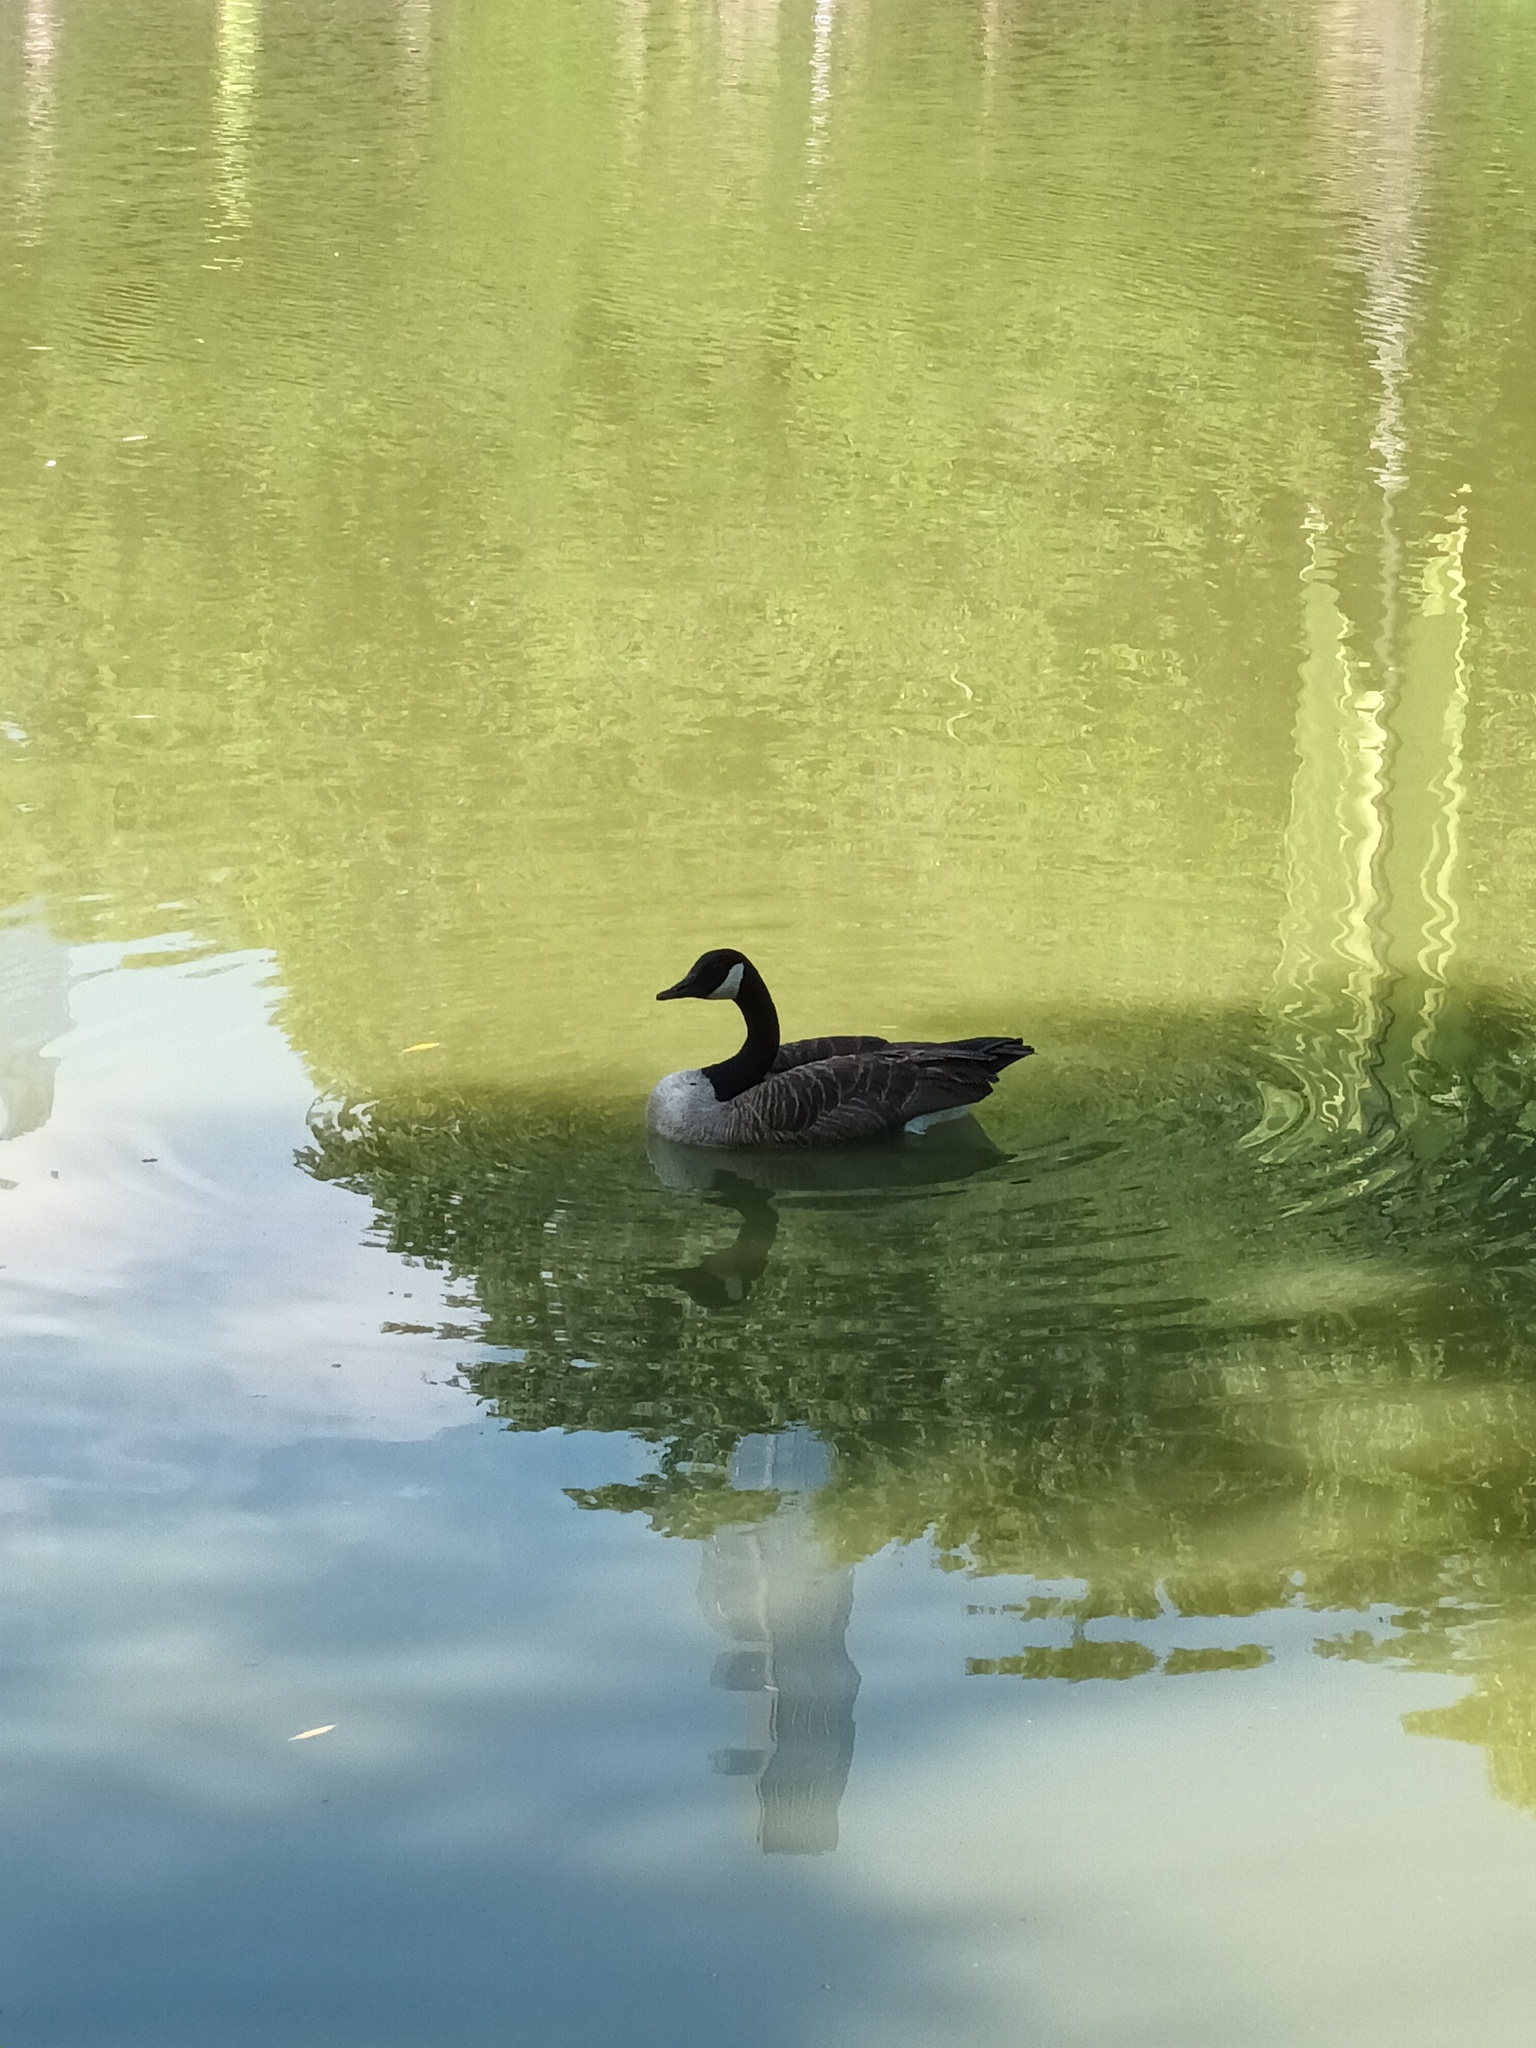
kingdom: Animalia
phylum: Chordata
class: Aves
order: Anseriformes
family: Anatidae
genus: Branta
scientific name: Branta canadensis
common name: Canada goose
